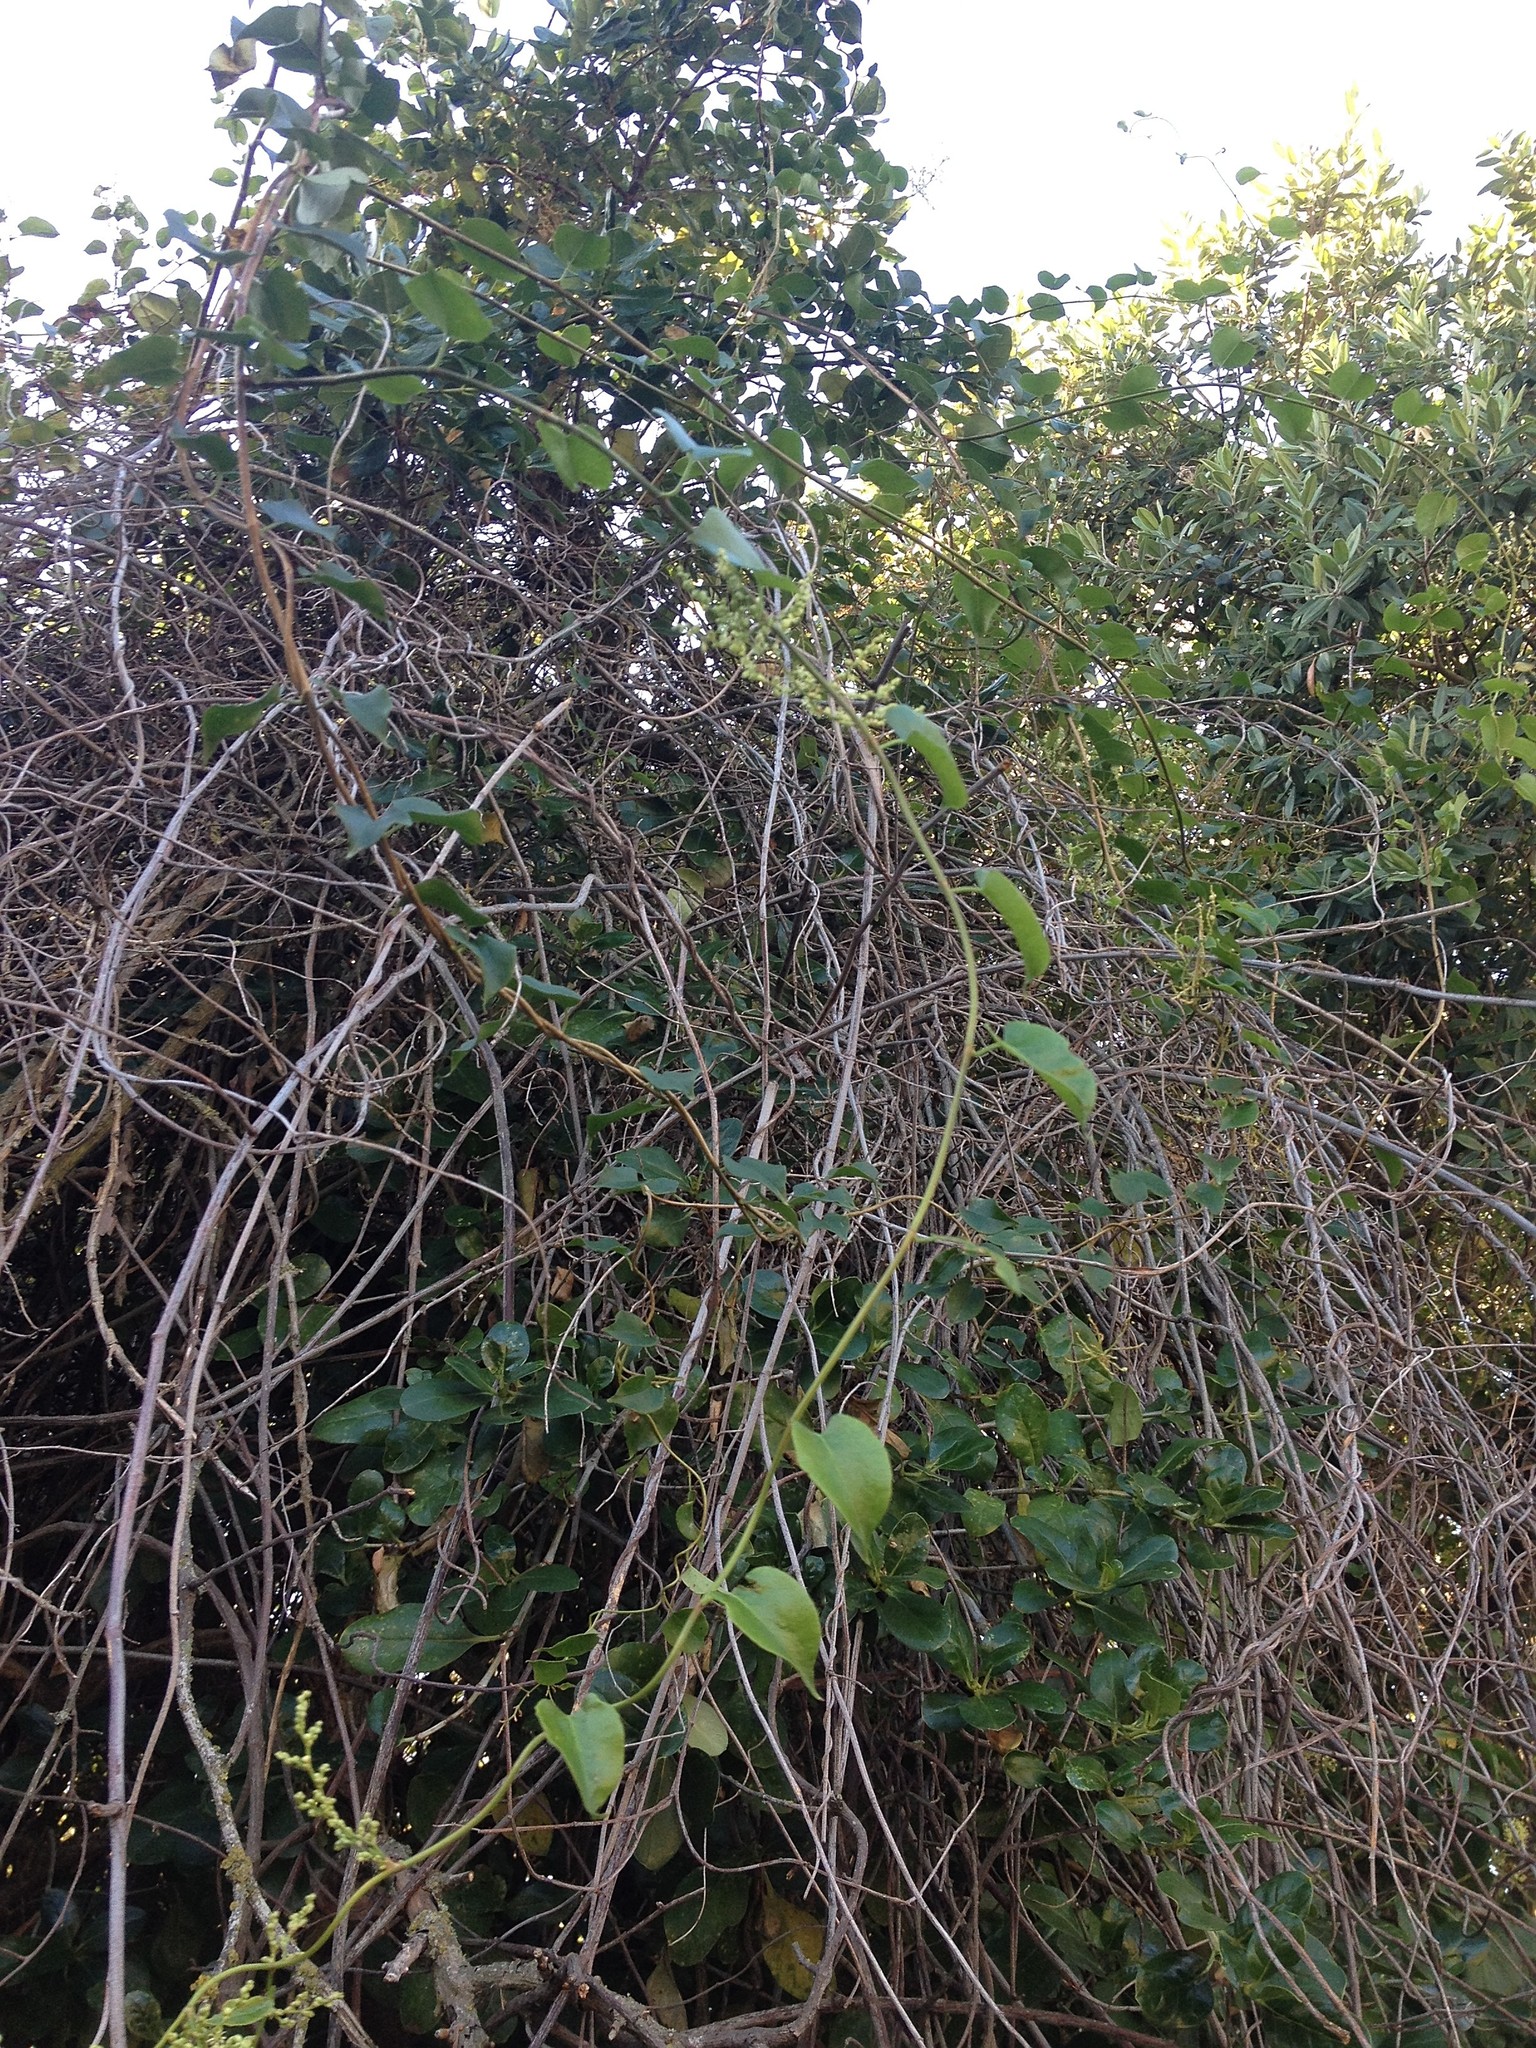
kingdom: Plantae
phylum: Tracheophyta
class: Magnoliopsida
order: Caryophyllales
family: Polygonaceae
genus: Muehlenbeckia
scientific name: Muehlenbeckia australis
